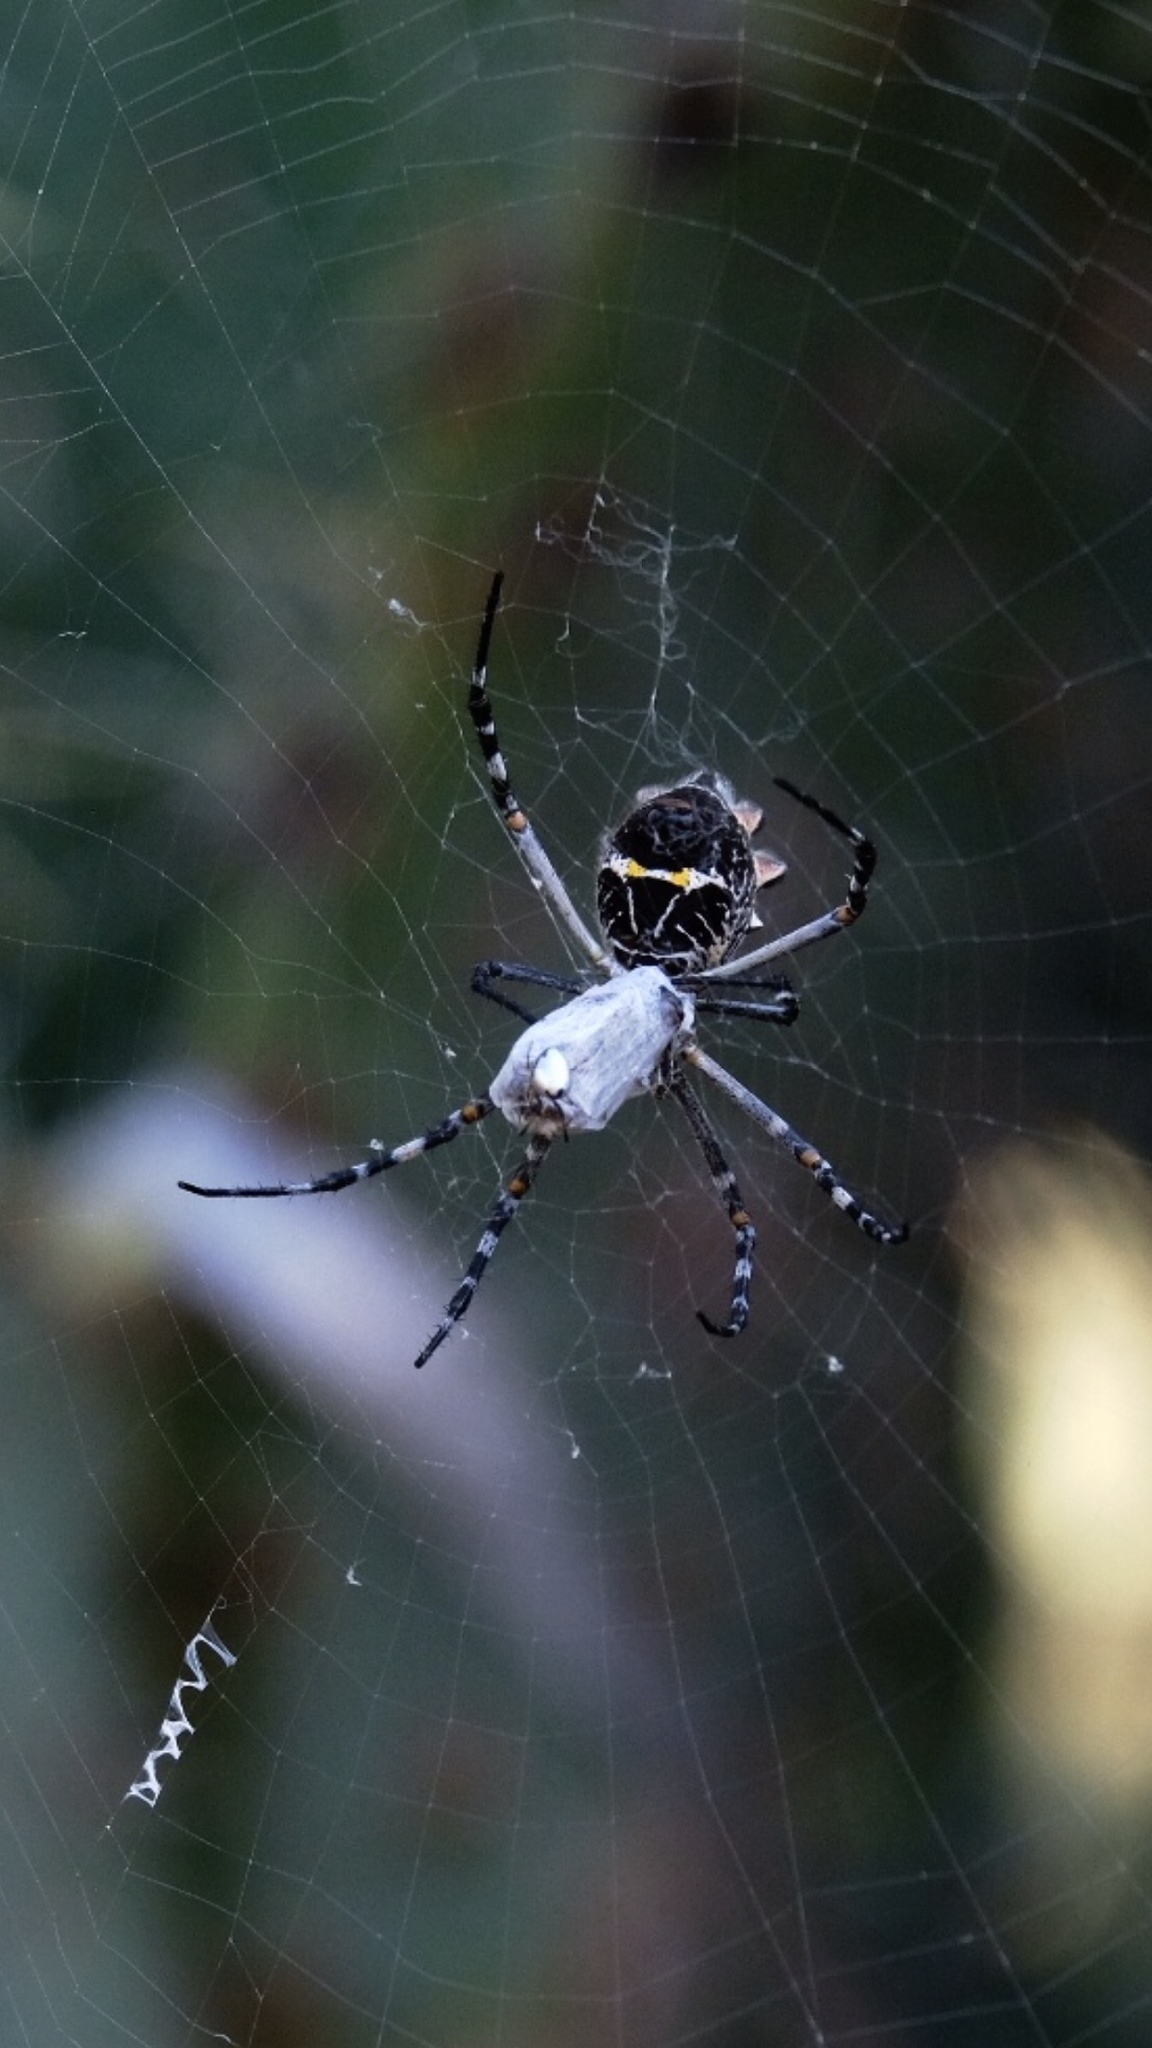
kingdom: Animalia
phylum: Arthropoda
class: Arachnida
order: Araneae
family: Araneidae
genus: Argiope
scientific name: Argiope argentata
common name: Orb weavers
